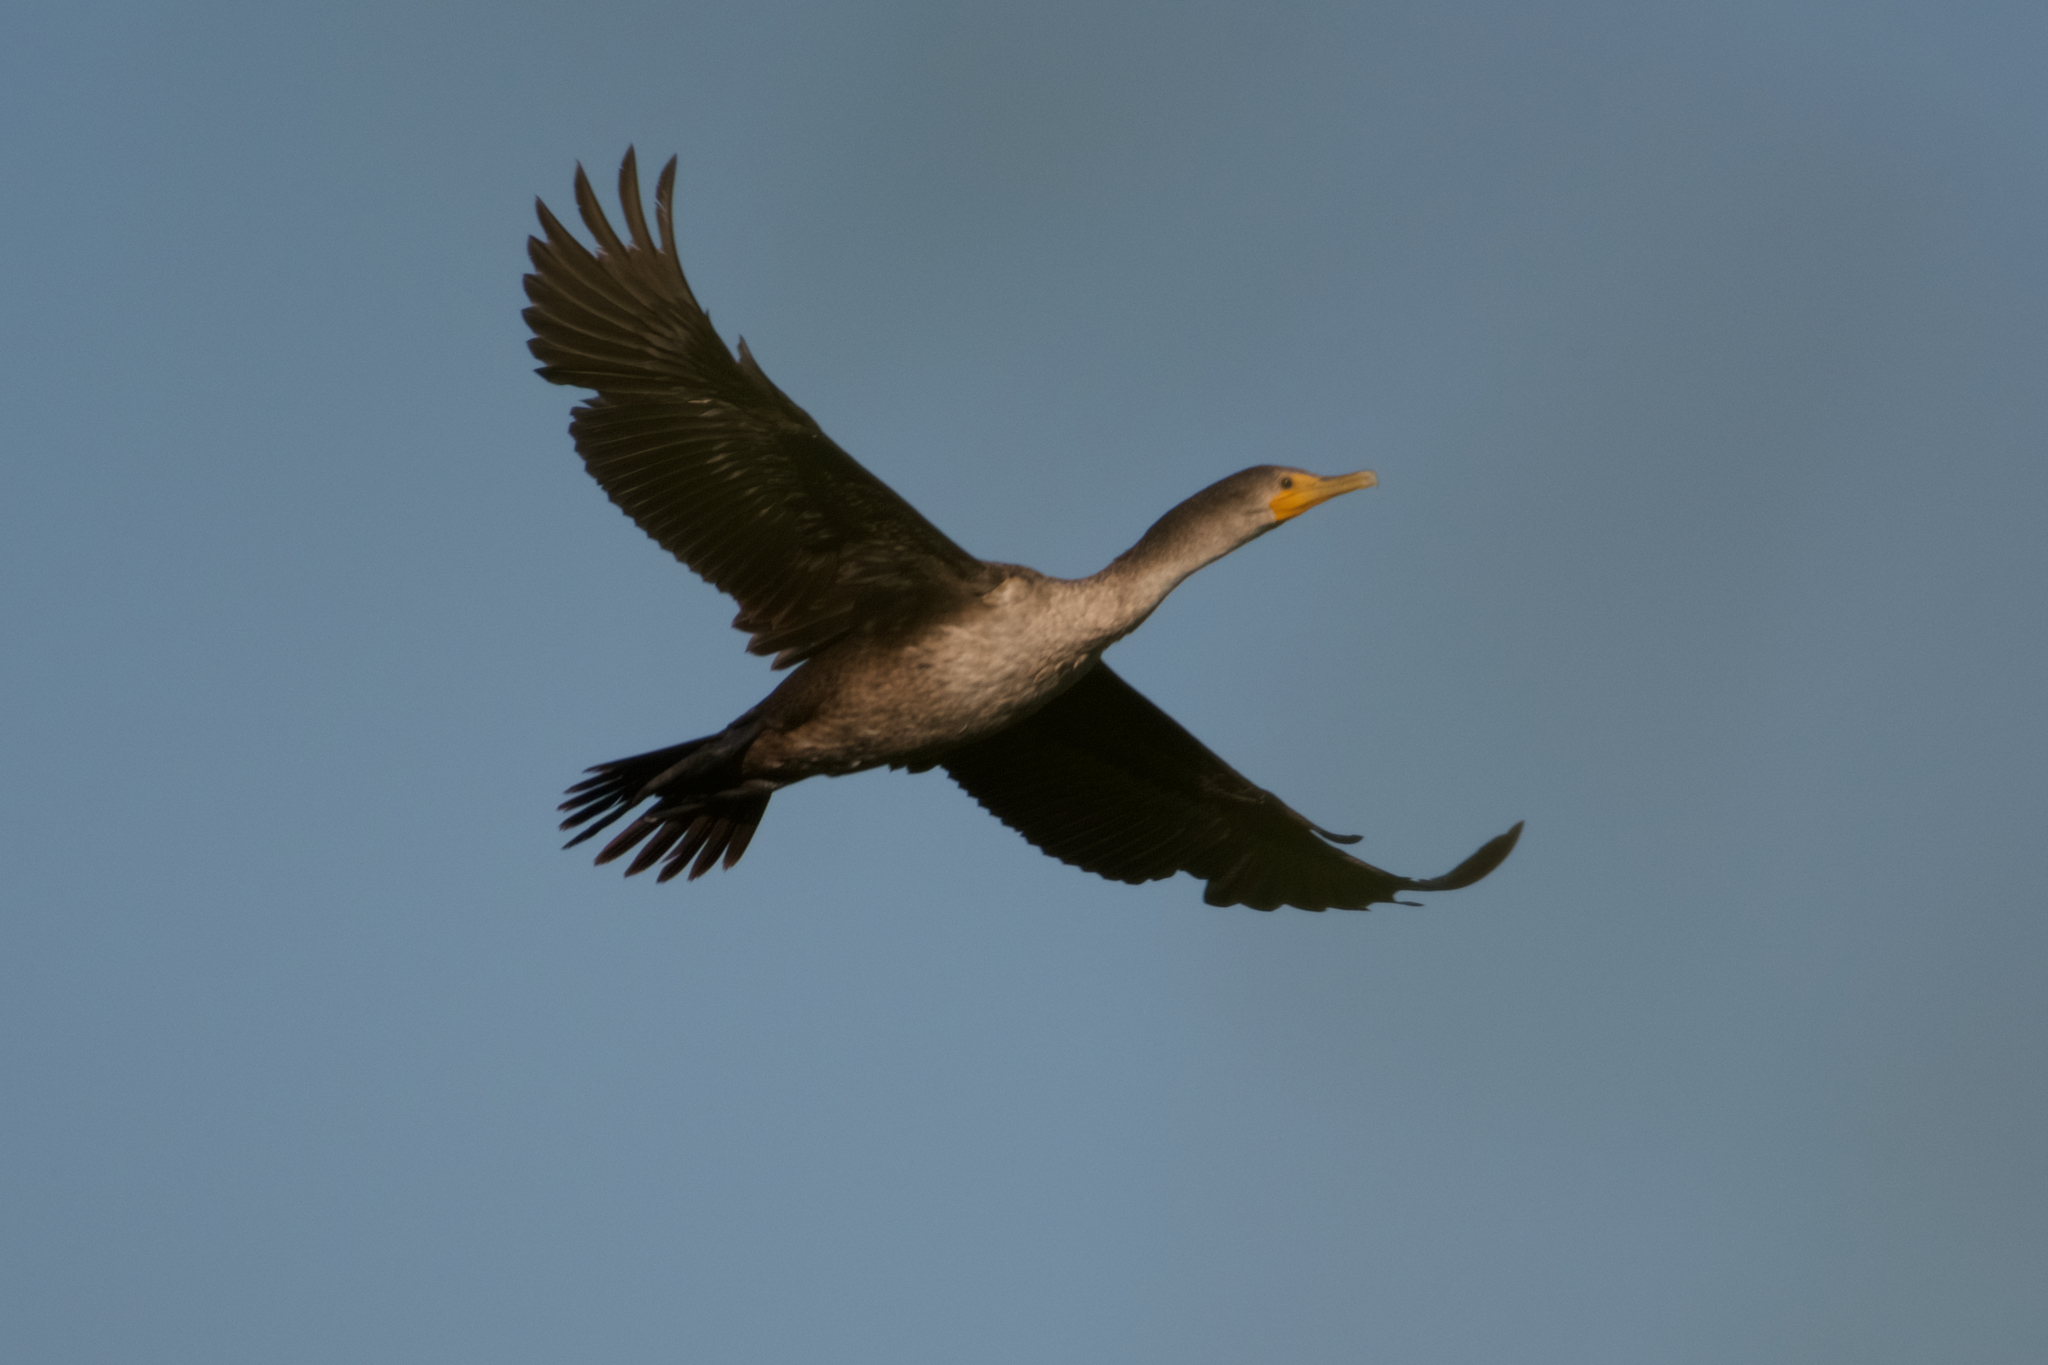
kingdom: Animalia
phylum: Chordata
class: Aves
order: Suliformes
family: Phalacrocoracidae
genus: Phalacrocorax
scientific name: Phalacrocorax auritus
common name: Double-crested cormorant
